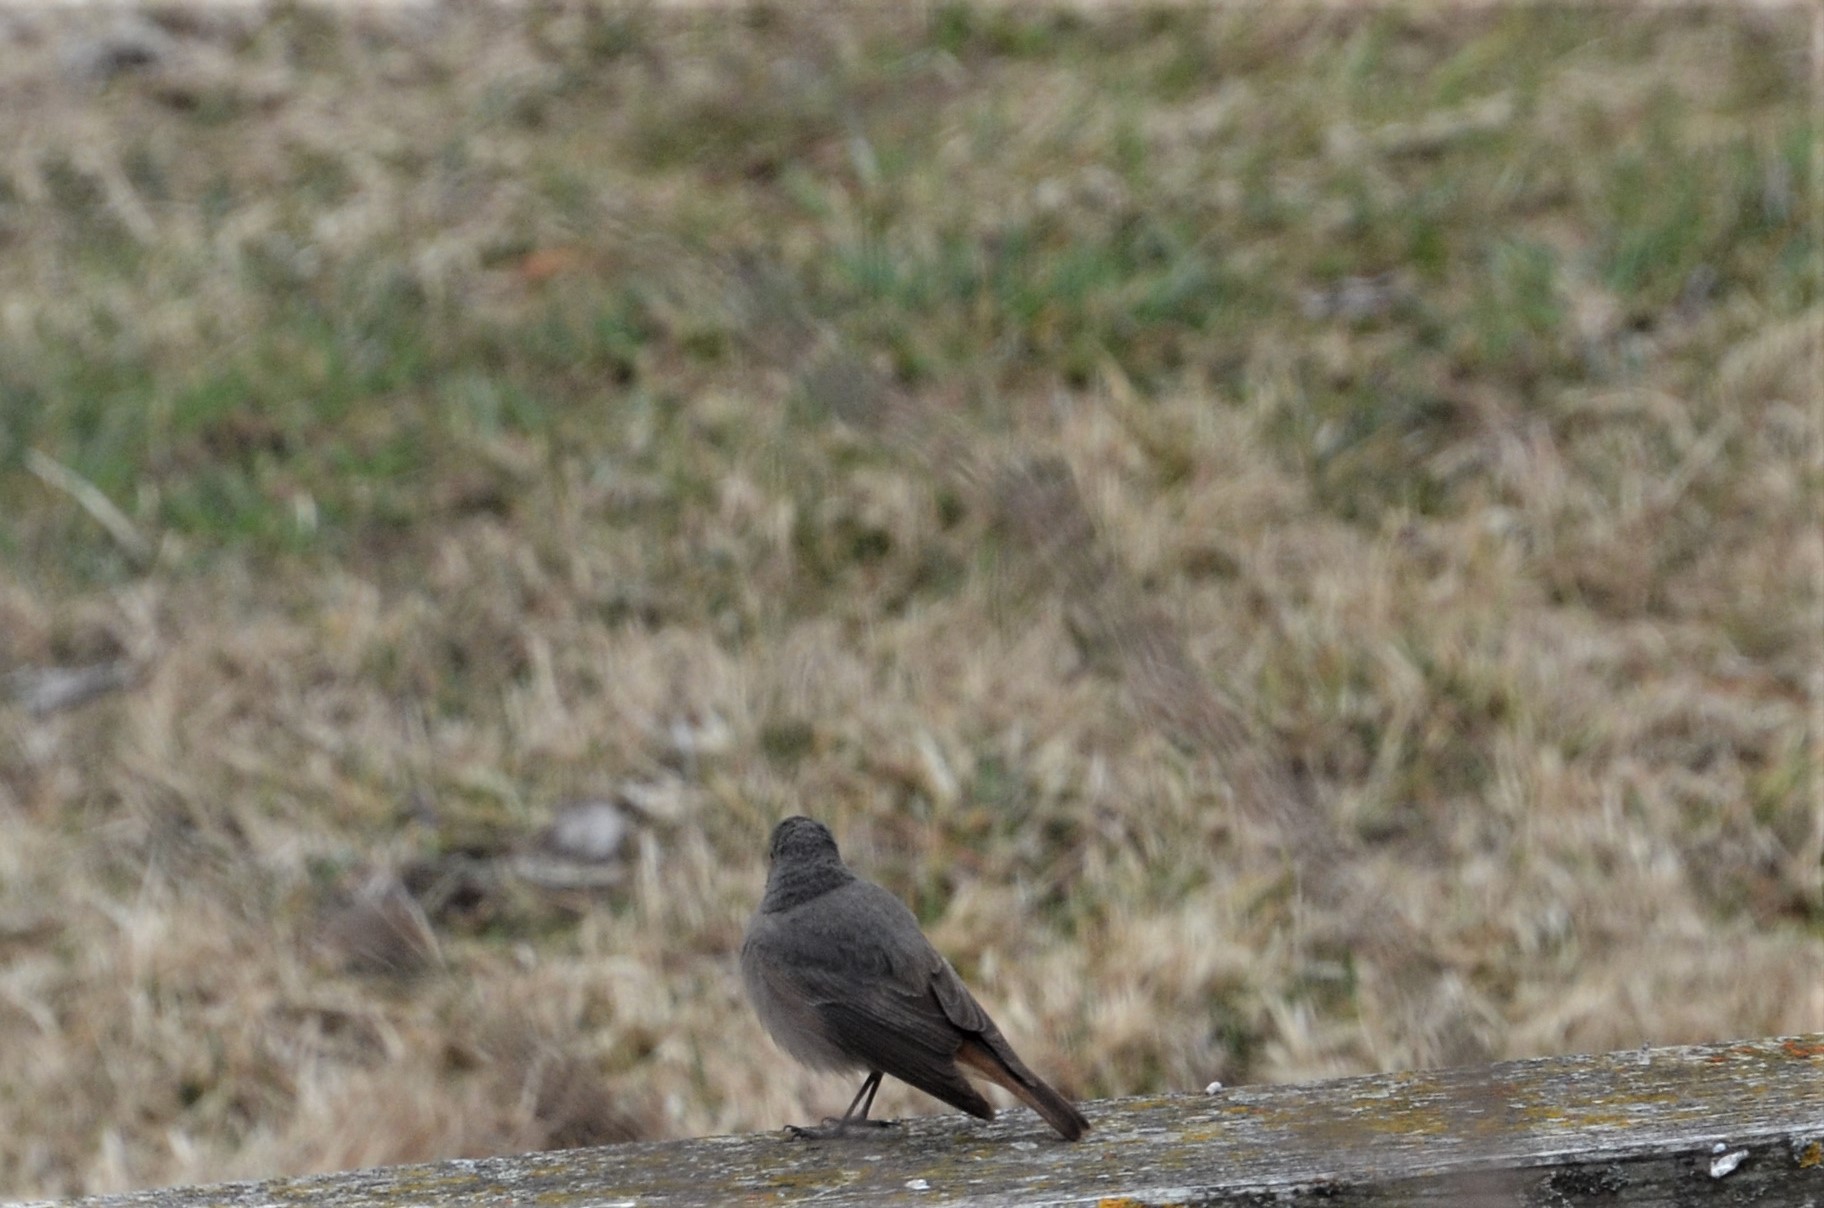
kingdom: Animalia
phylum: Chordata
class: Aves
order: Passeriformes
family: Muscicapidae
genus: Phoenicurus
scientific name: Phoenicurus ochruros
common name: Black redstart
